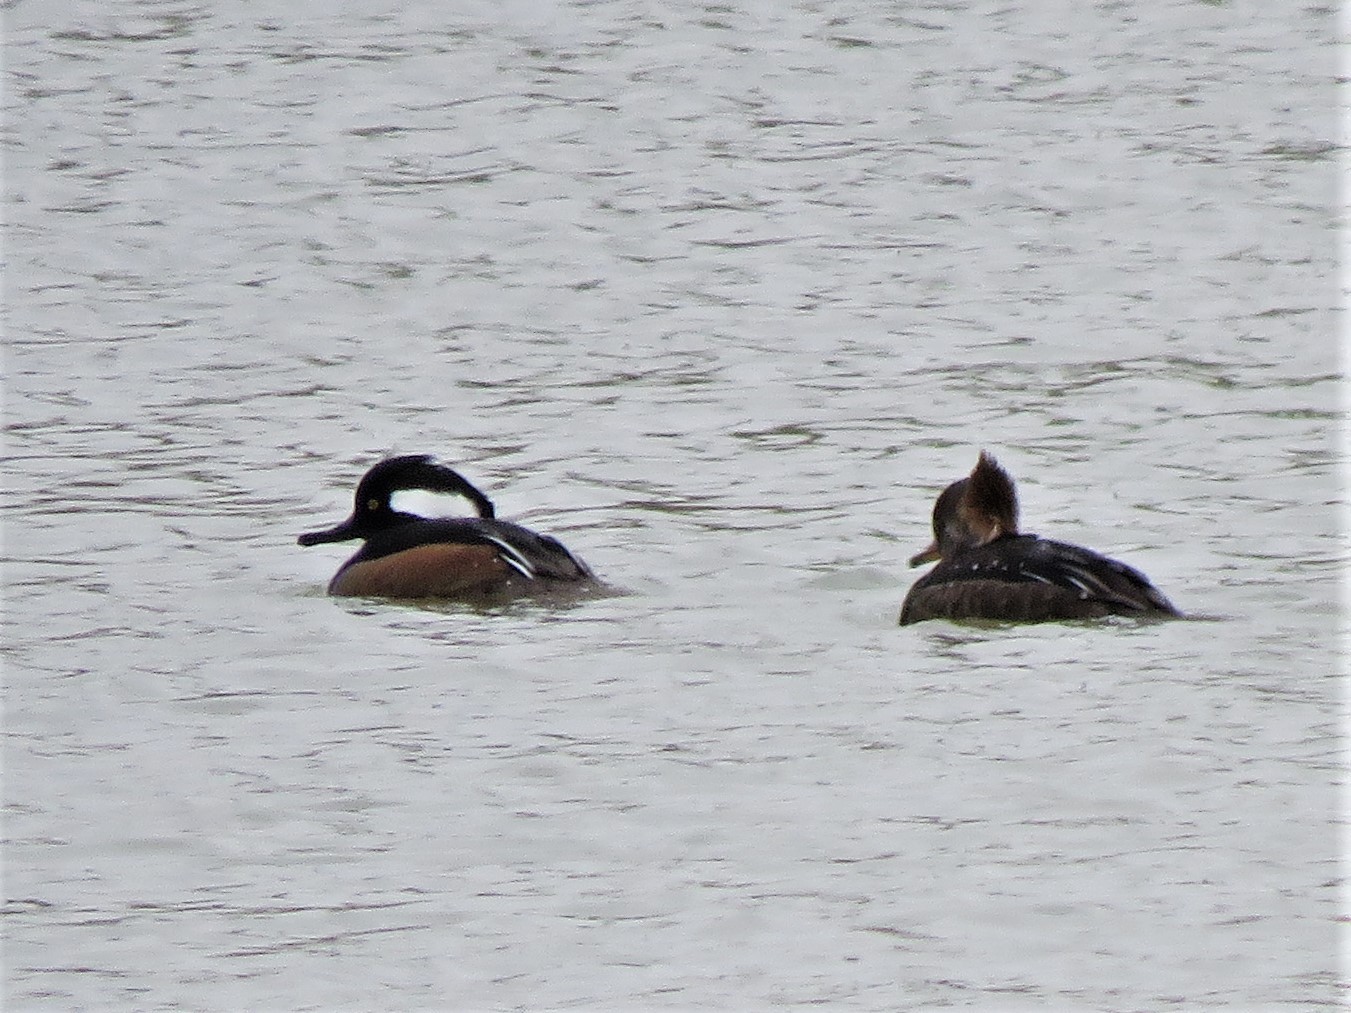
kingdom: Animalia
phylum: Chordata
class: Aves
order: Anseriformes
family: Anatidae
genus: Lophodytes
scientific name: Lophodytes cucullatus
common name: Hooded merganser
